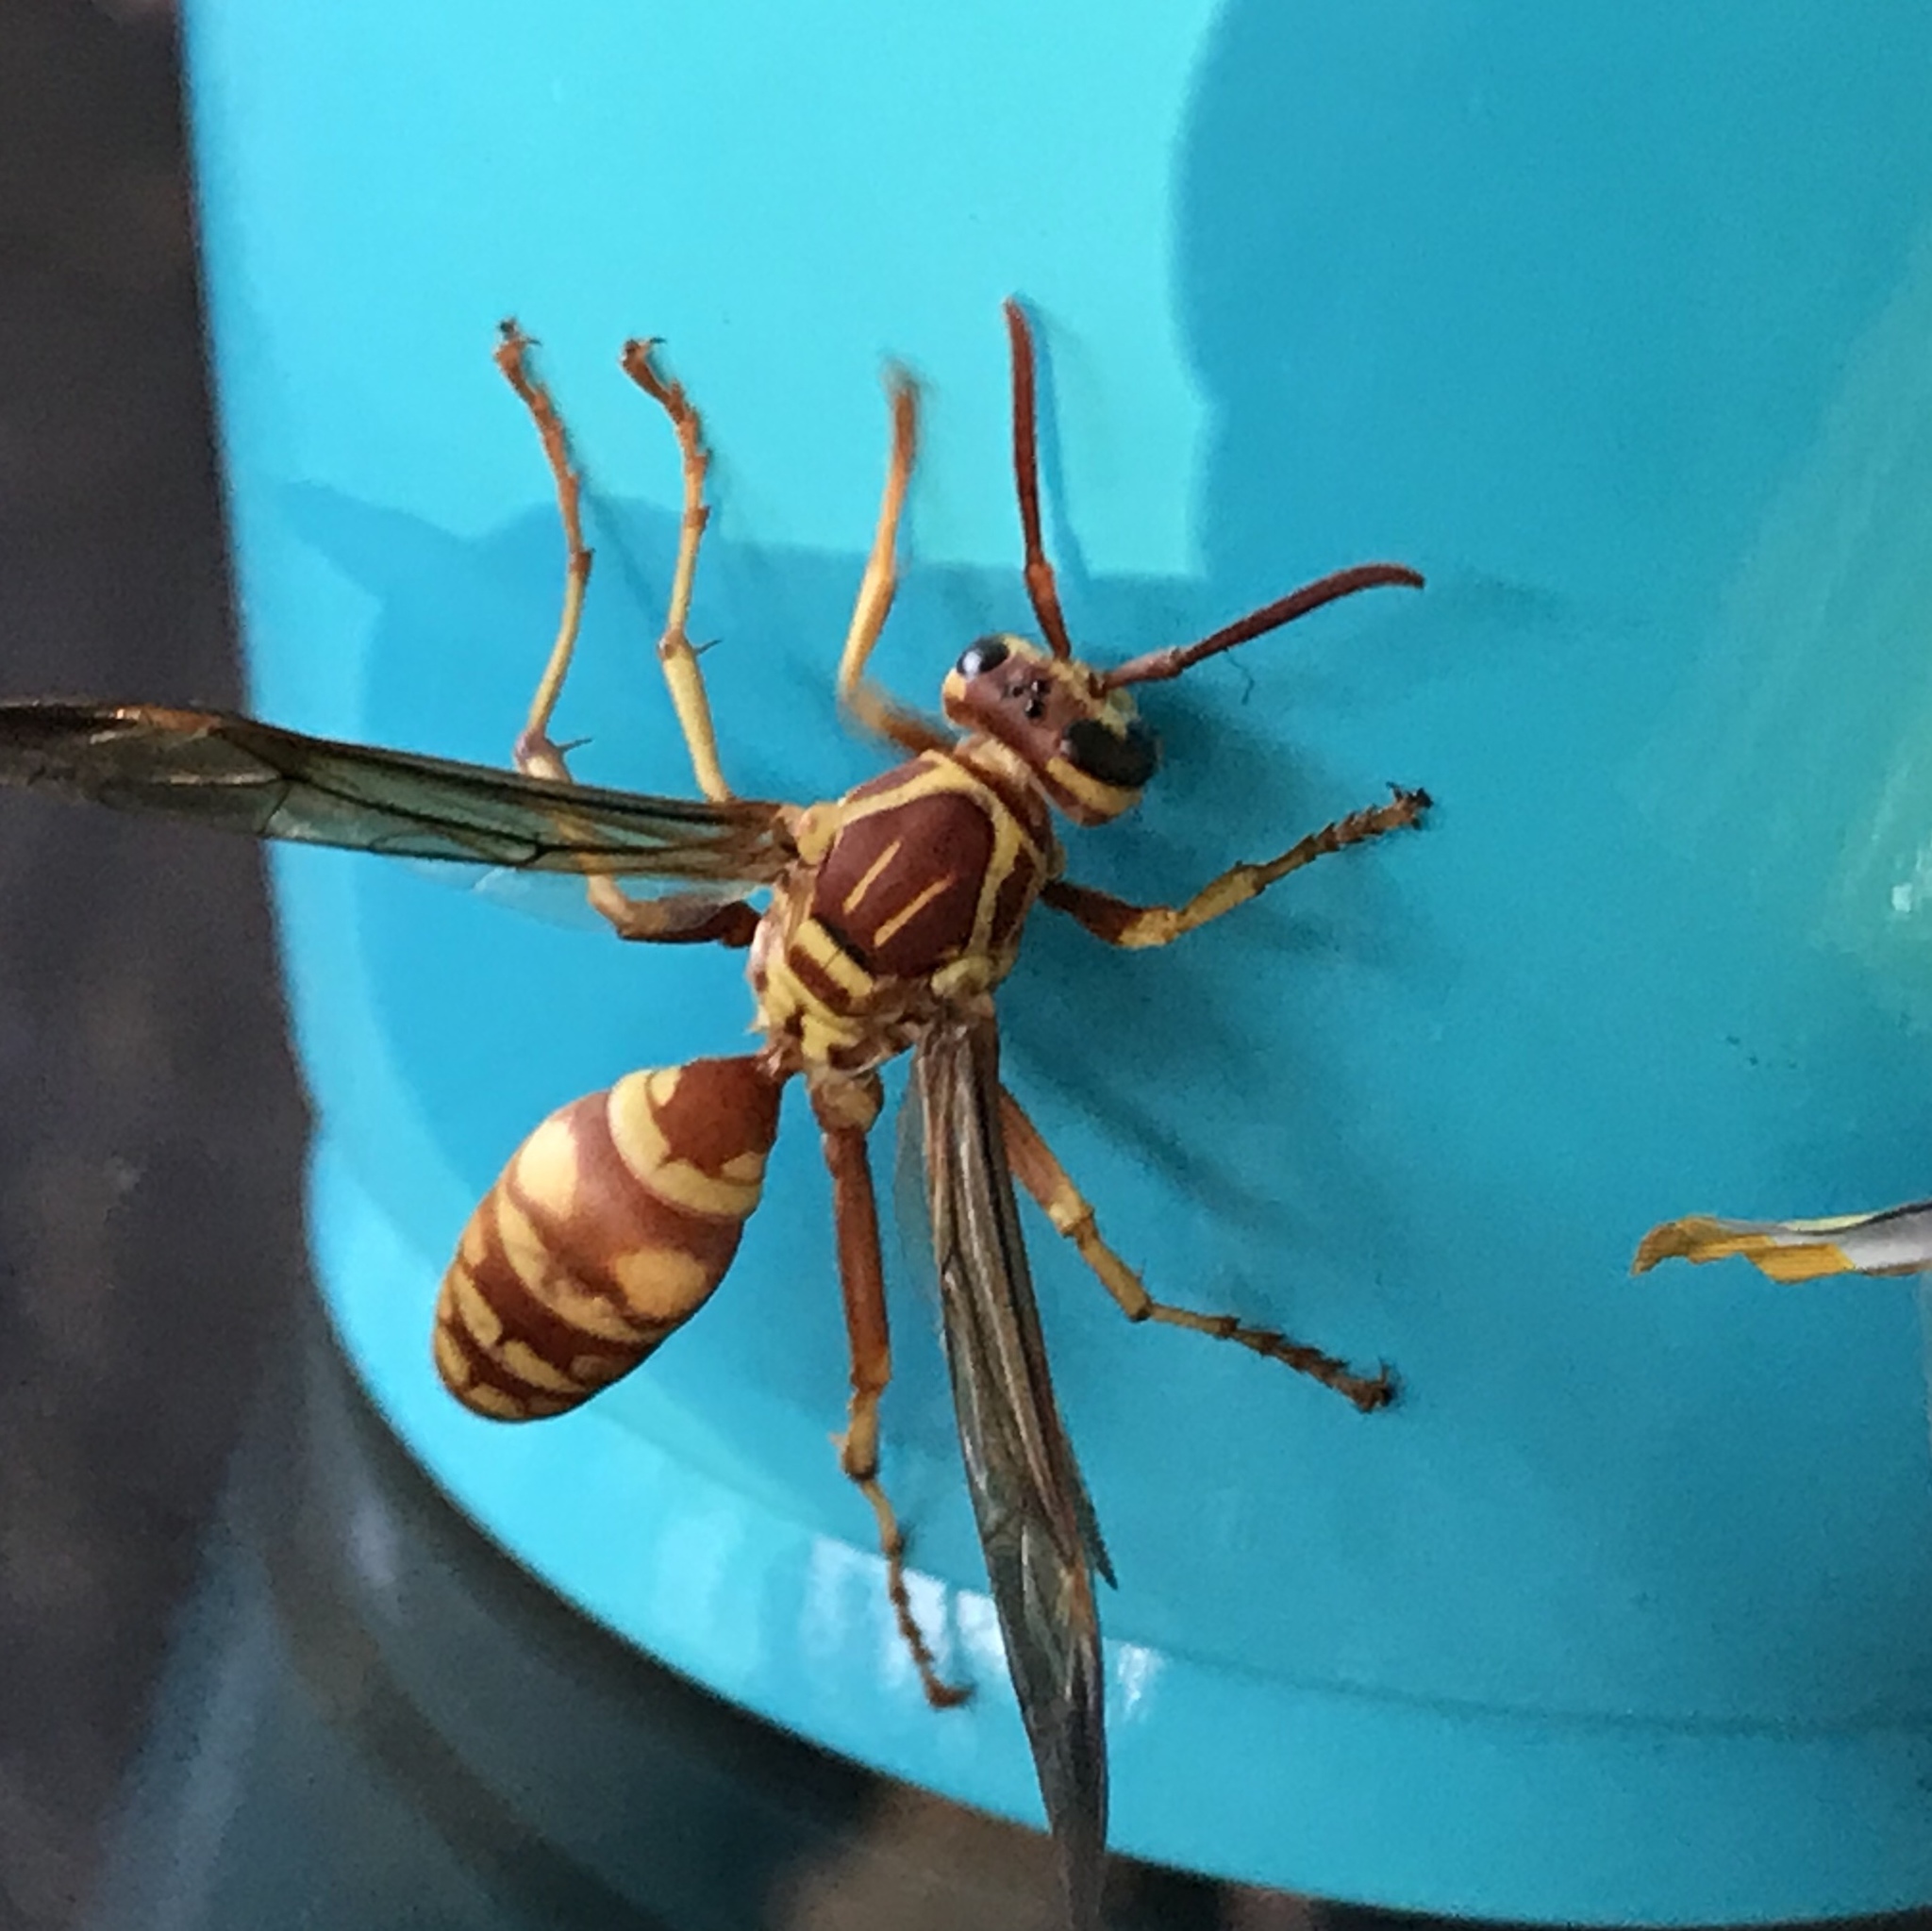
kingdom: Animalia
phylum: Arthropoda
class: Insecta
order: Hymenoptera
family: Eumenidae
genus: Polistes
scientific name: Polistes apachus
